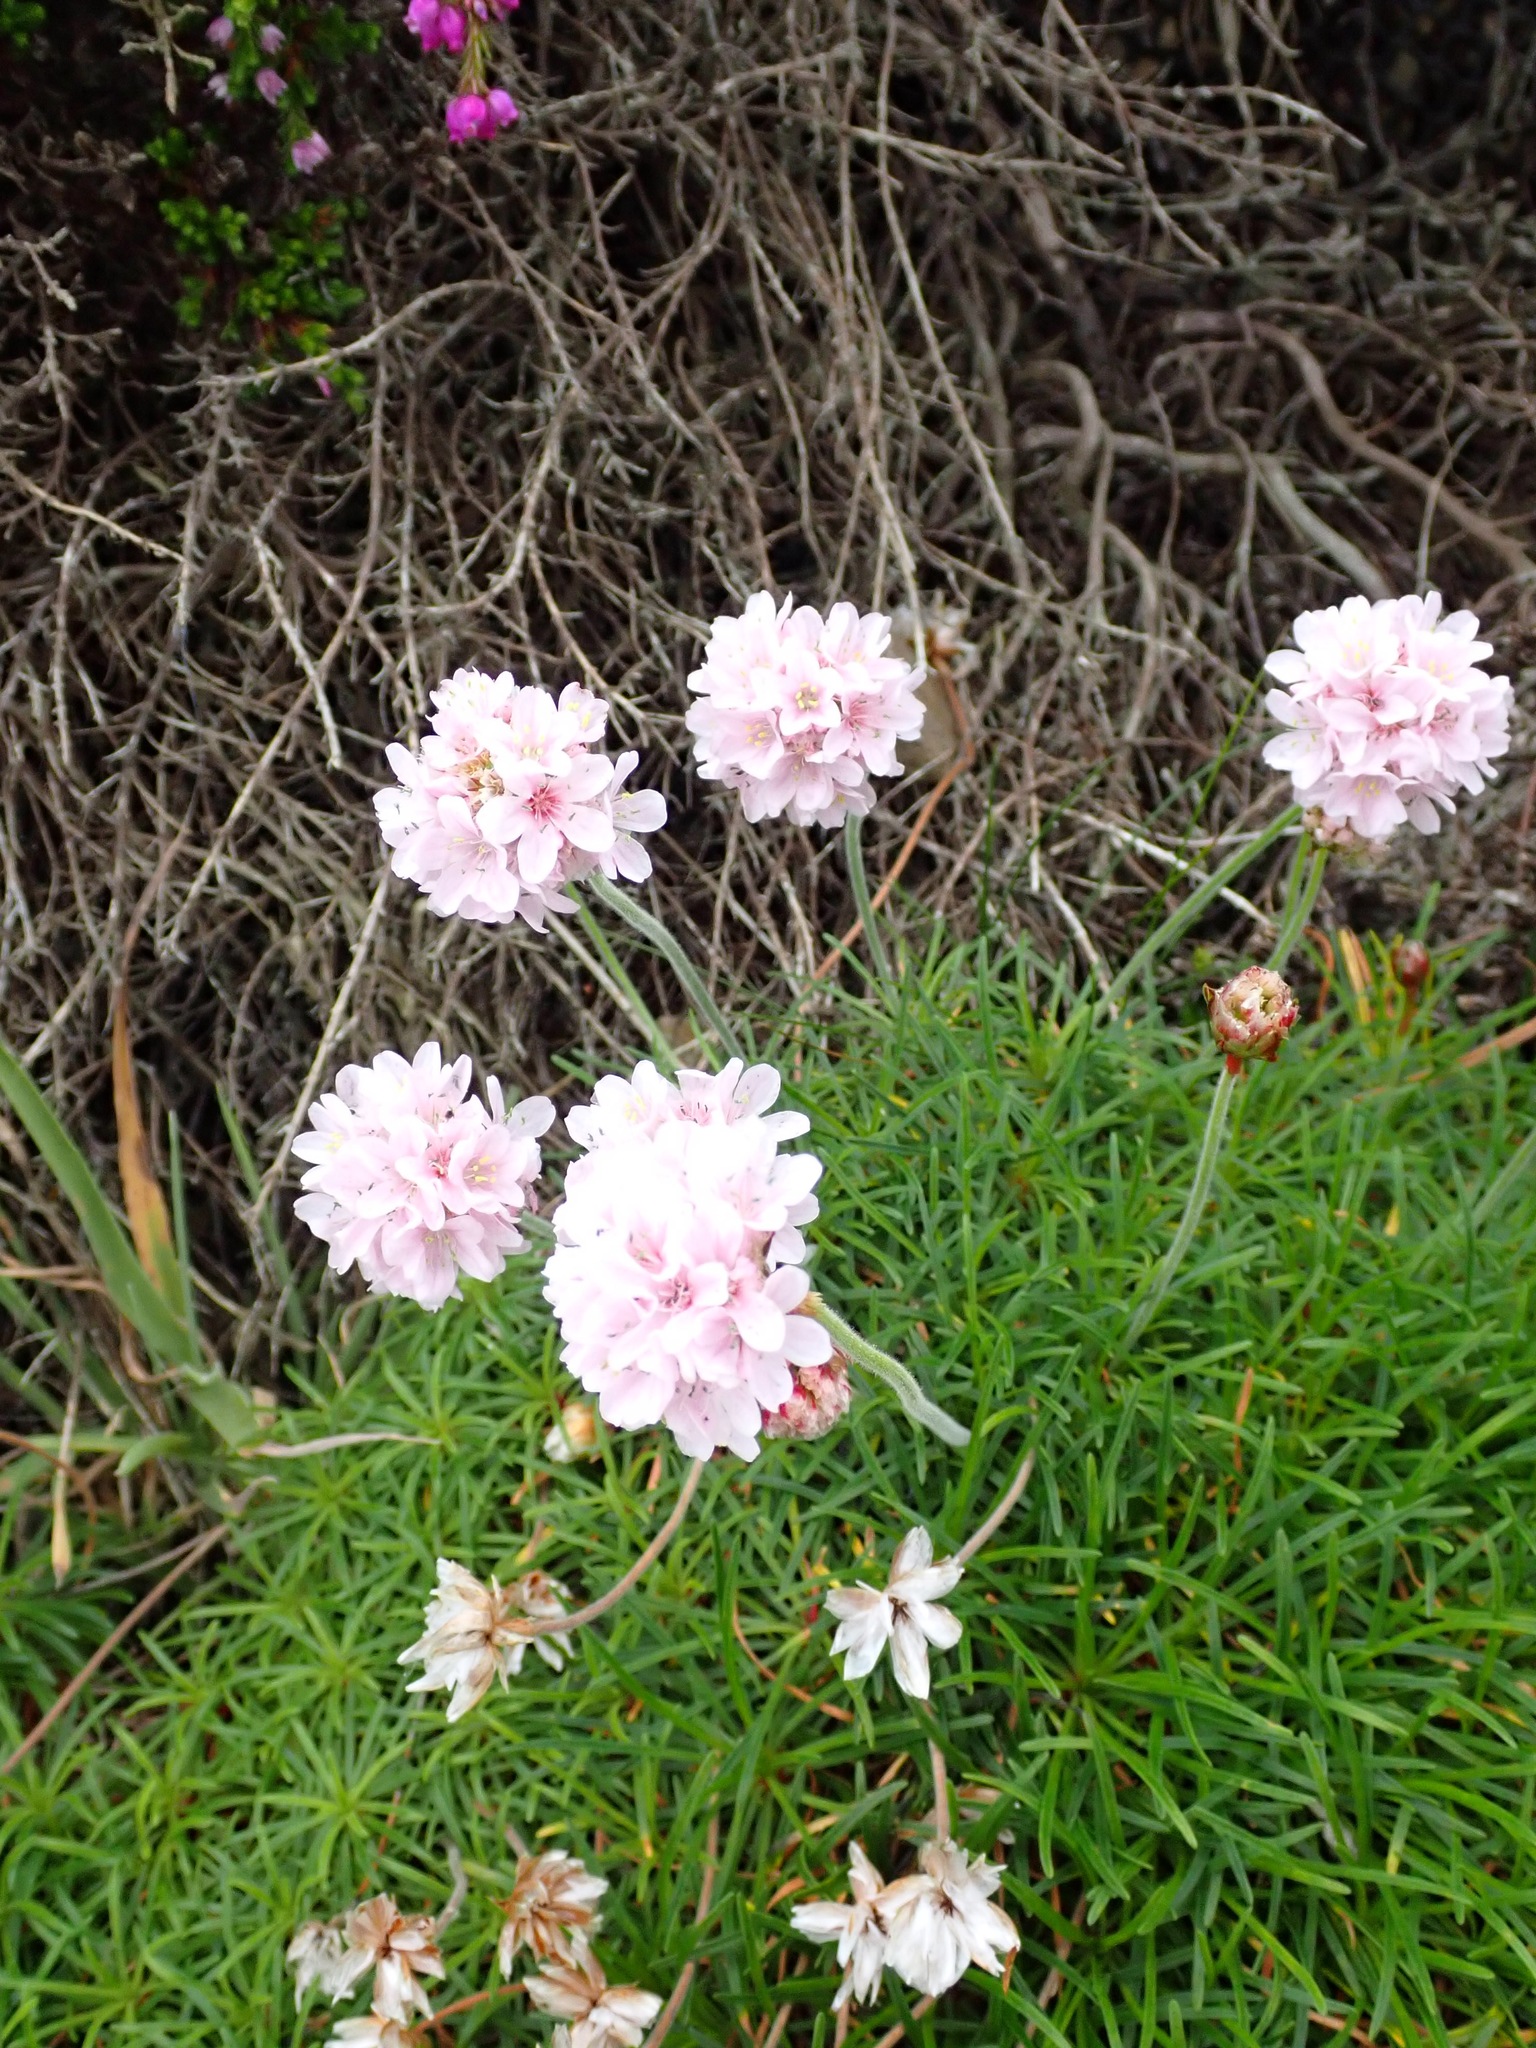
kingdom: Plantae
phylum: Tracheophyta
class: Magnoliopsida
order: Caryophyllales
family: Plumbaginaceae
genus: Armeria
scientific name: Armeria maritima
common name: Thrift
